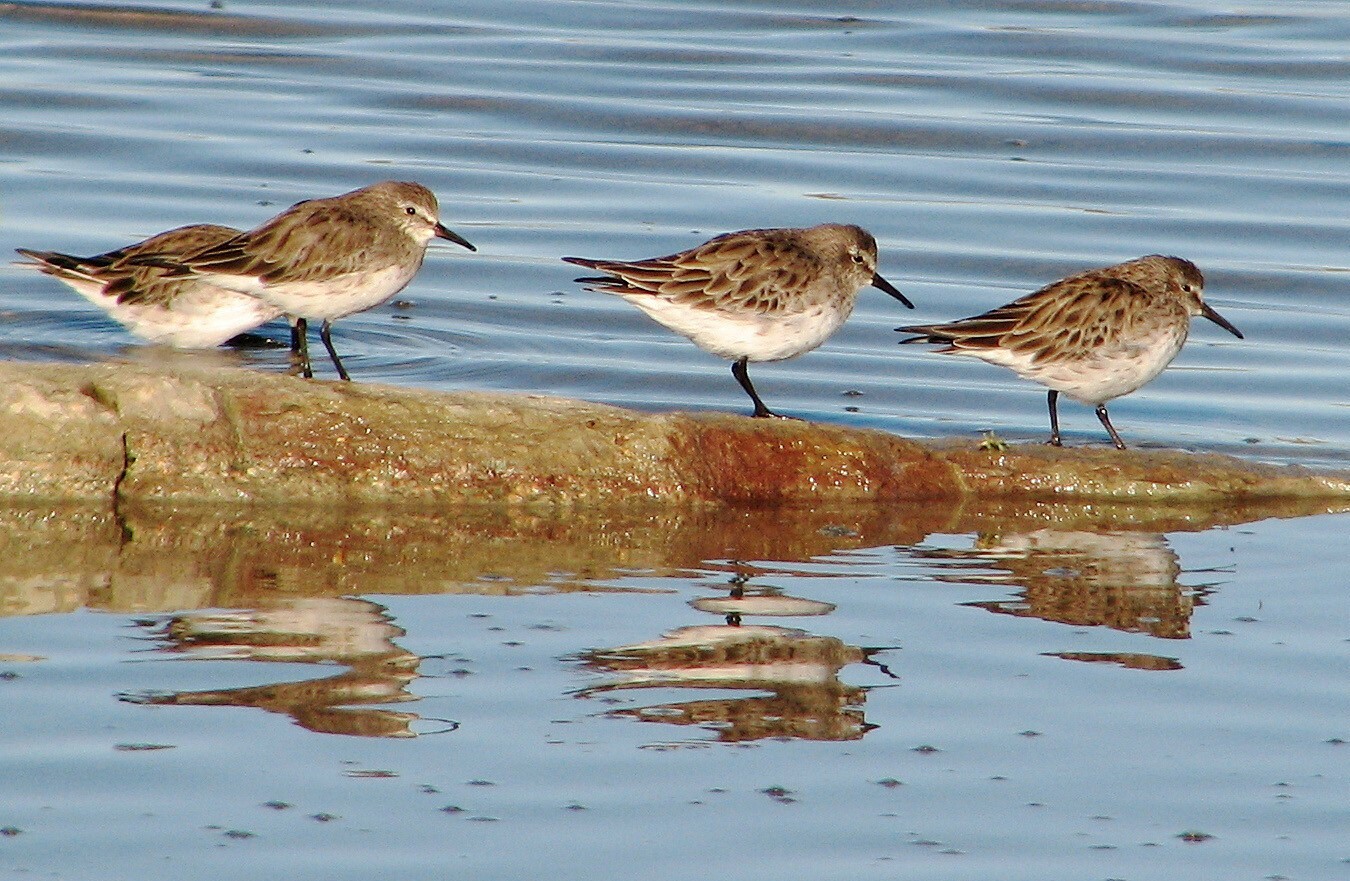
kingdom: Animalia
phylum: Chordata
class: Aves
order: Charadriiformes
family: Scolopacidae
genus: Calidris
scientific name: Calidris fuscicollis
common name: White-rumped sandpiper
